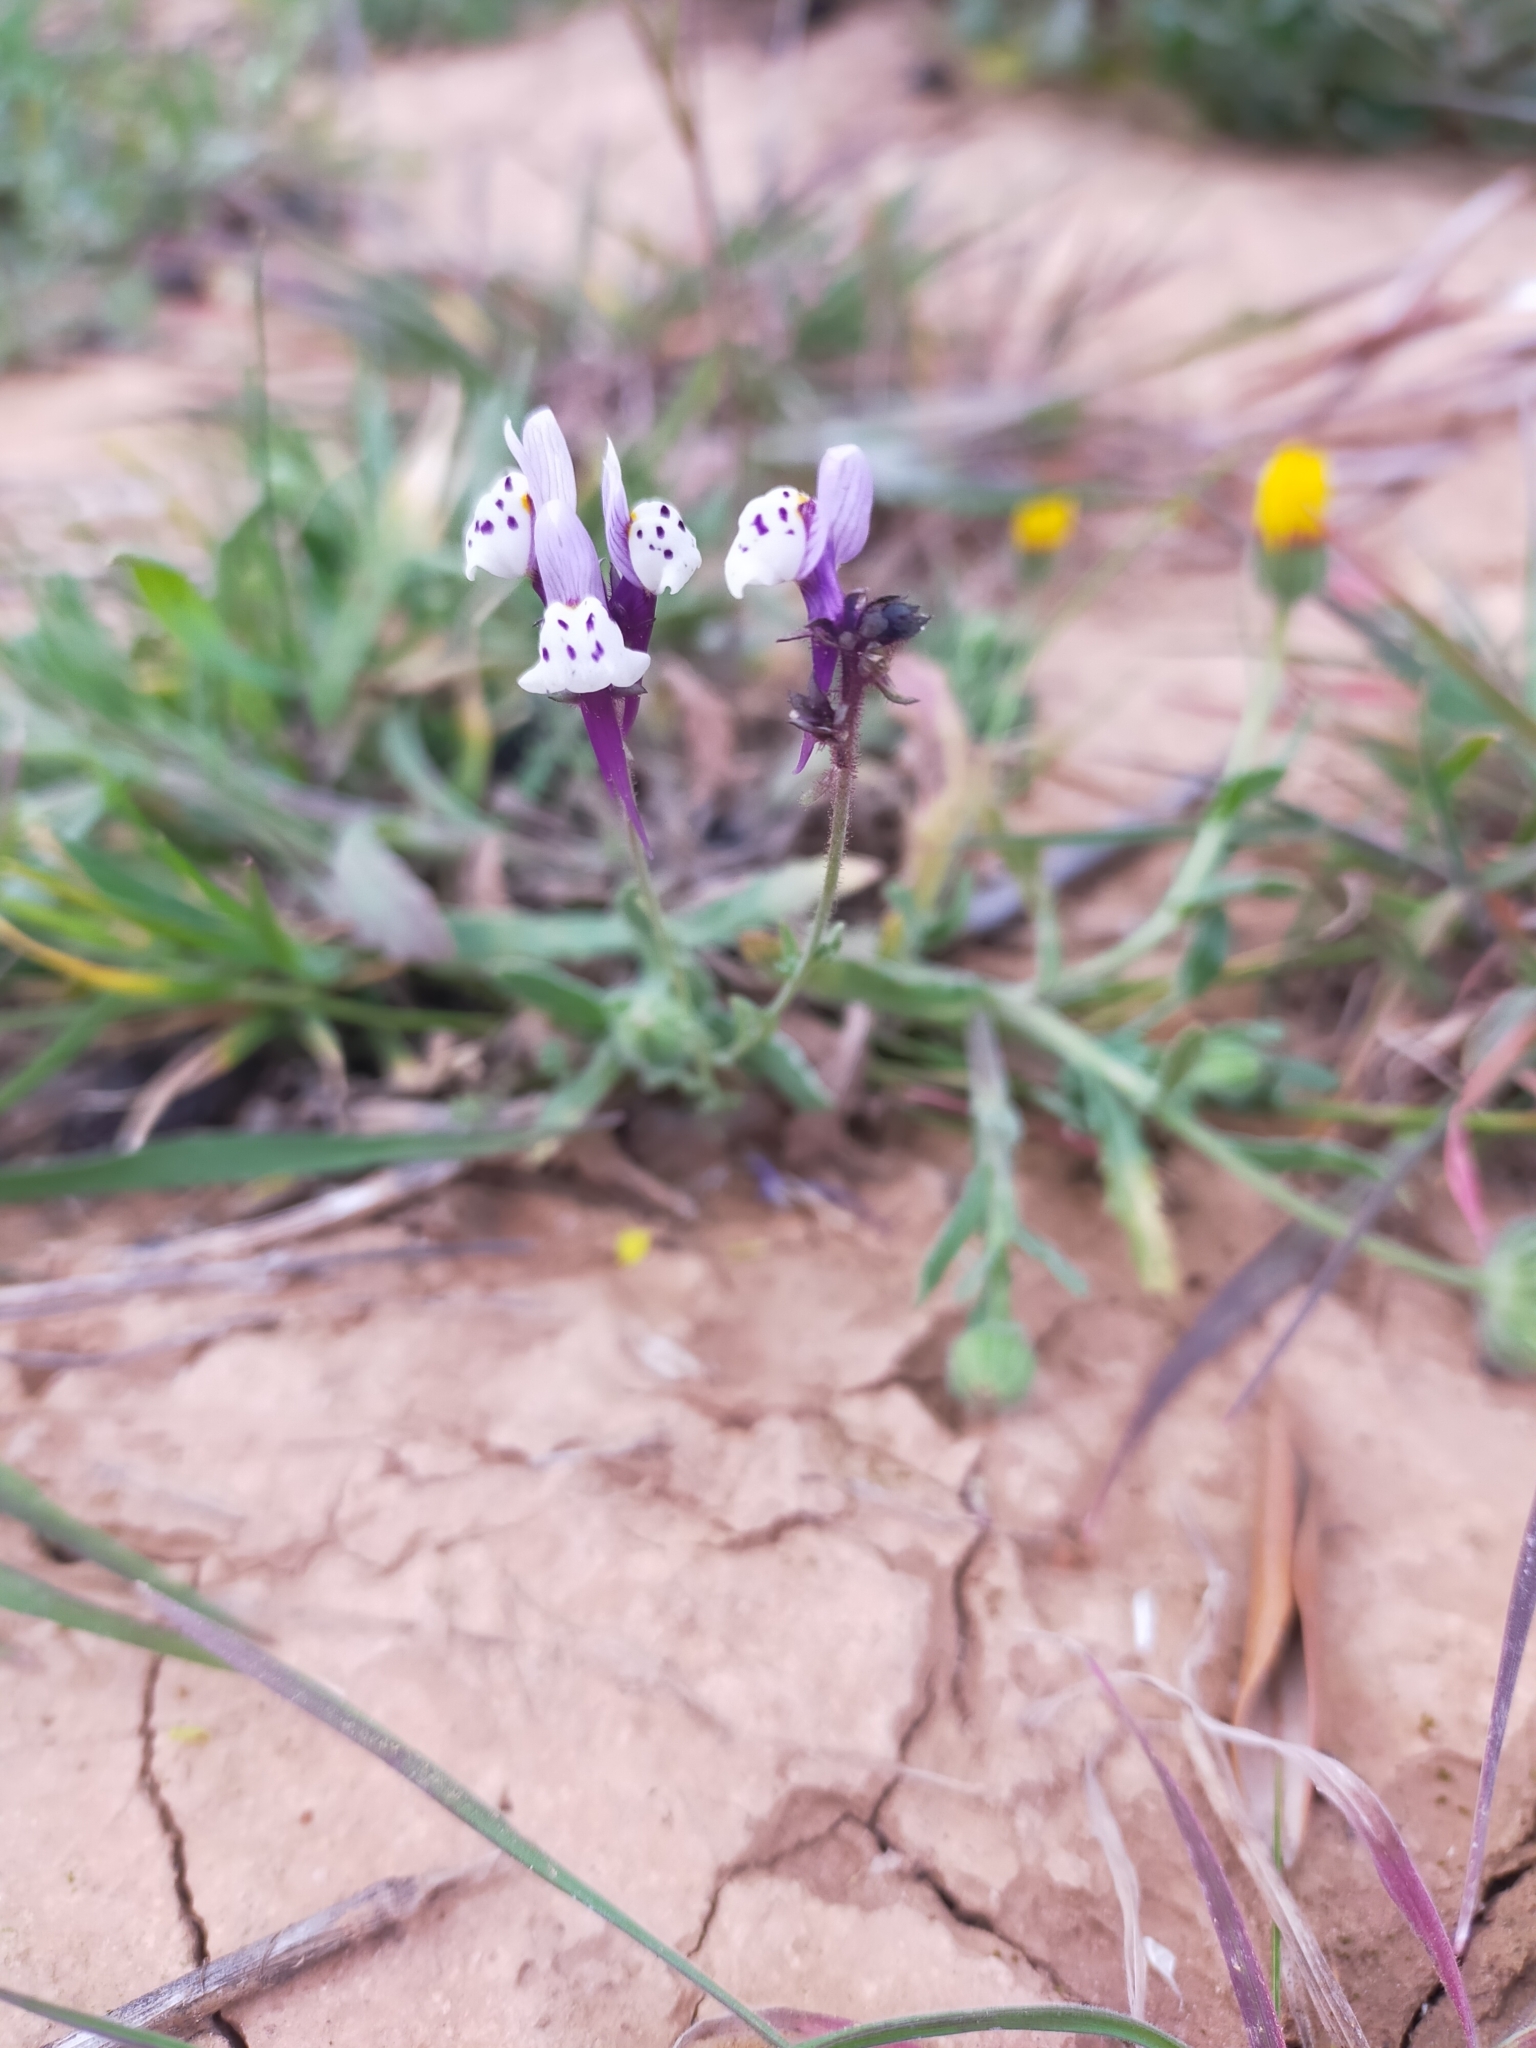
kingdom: Plantae
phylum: Tracheophyta
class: Magnoliopsida
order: Lamiales
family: Plantaginaceae
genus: Linaria
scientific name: Linaria amethystea
